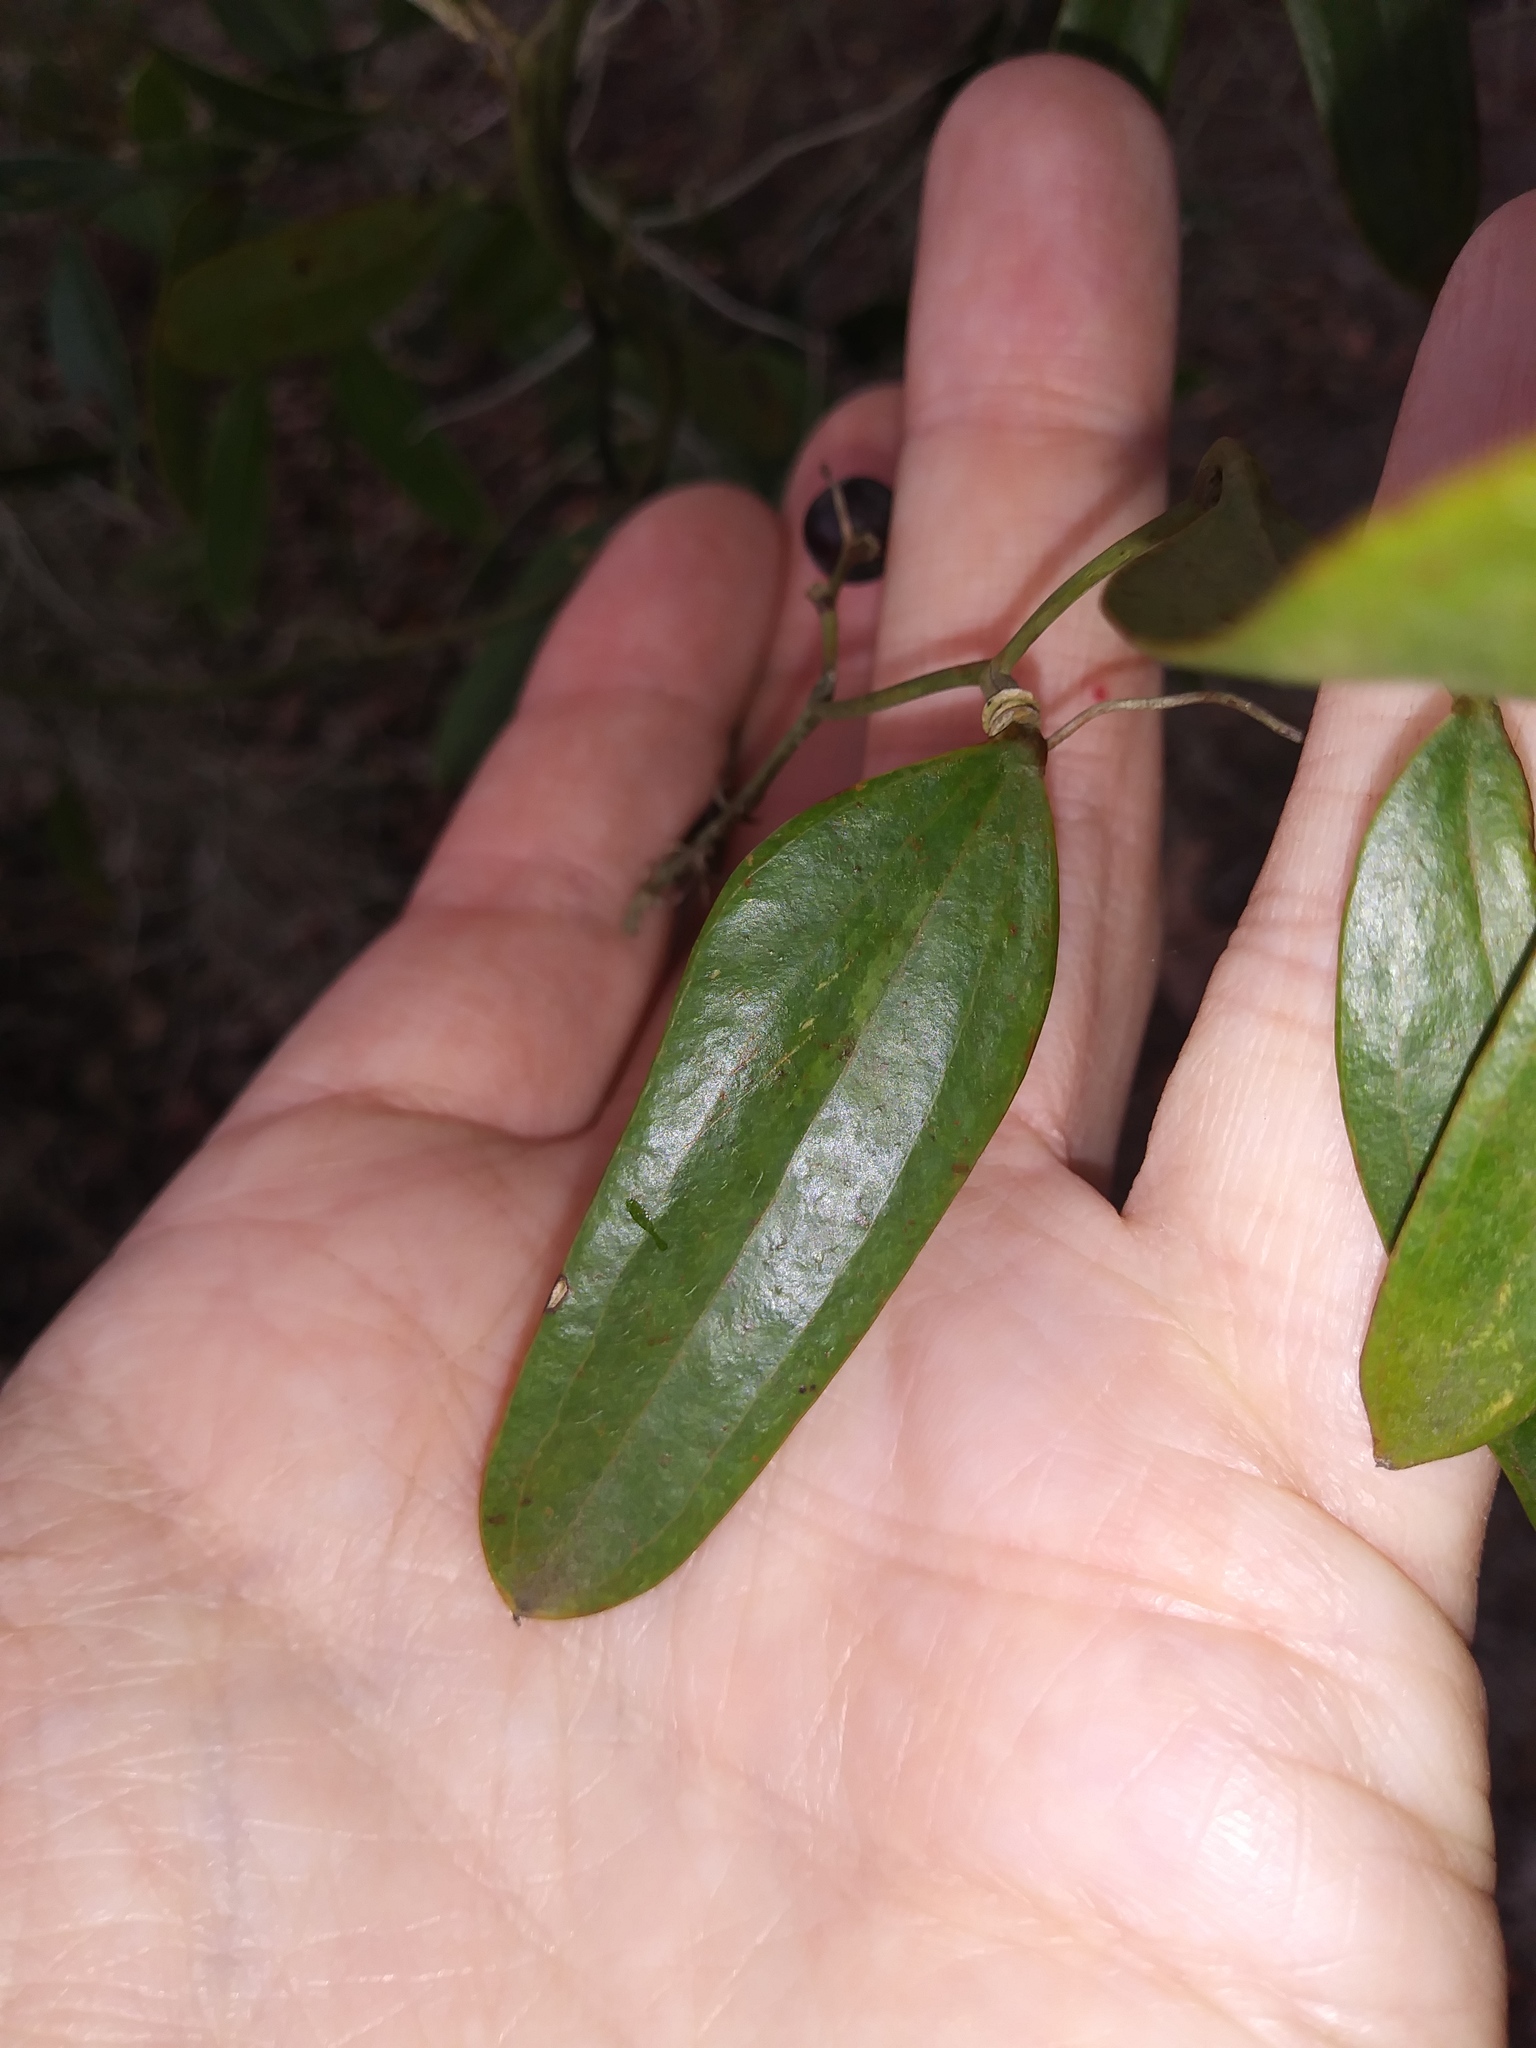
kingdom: Plantae
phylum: Tracheophyta
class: Liliopsida
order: Liliales
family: Smilacaceae
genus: Smilax
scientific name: Smilax auriculata
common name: Wild bamboo
